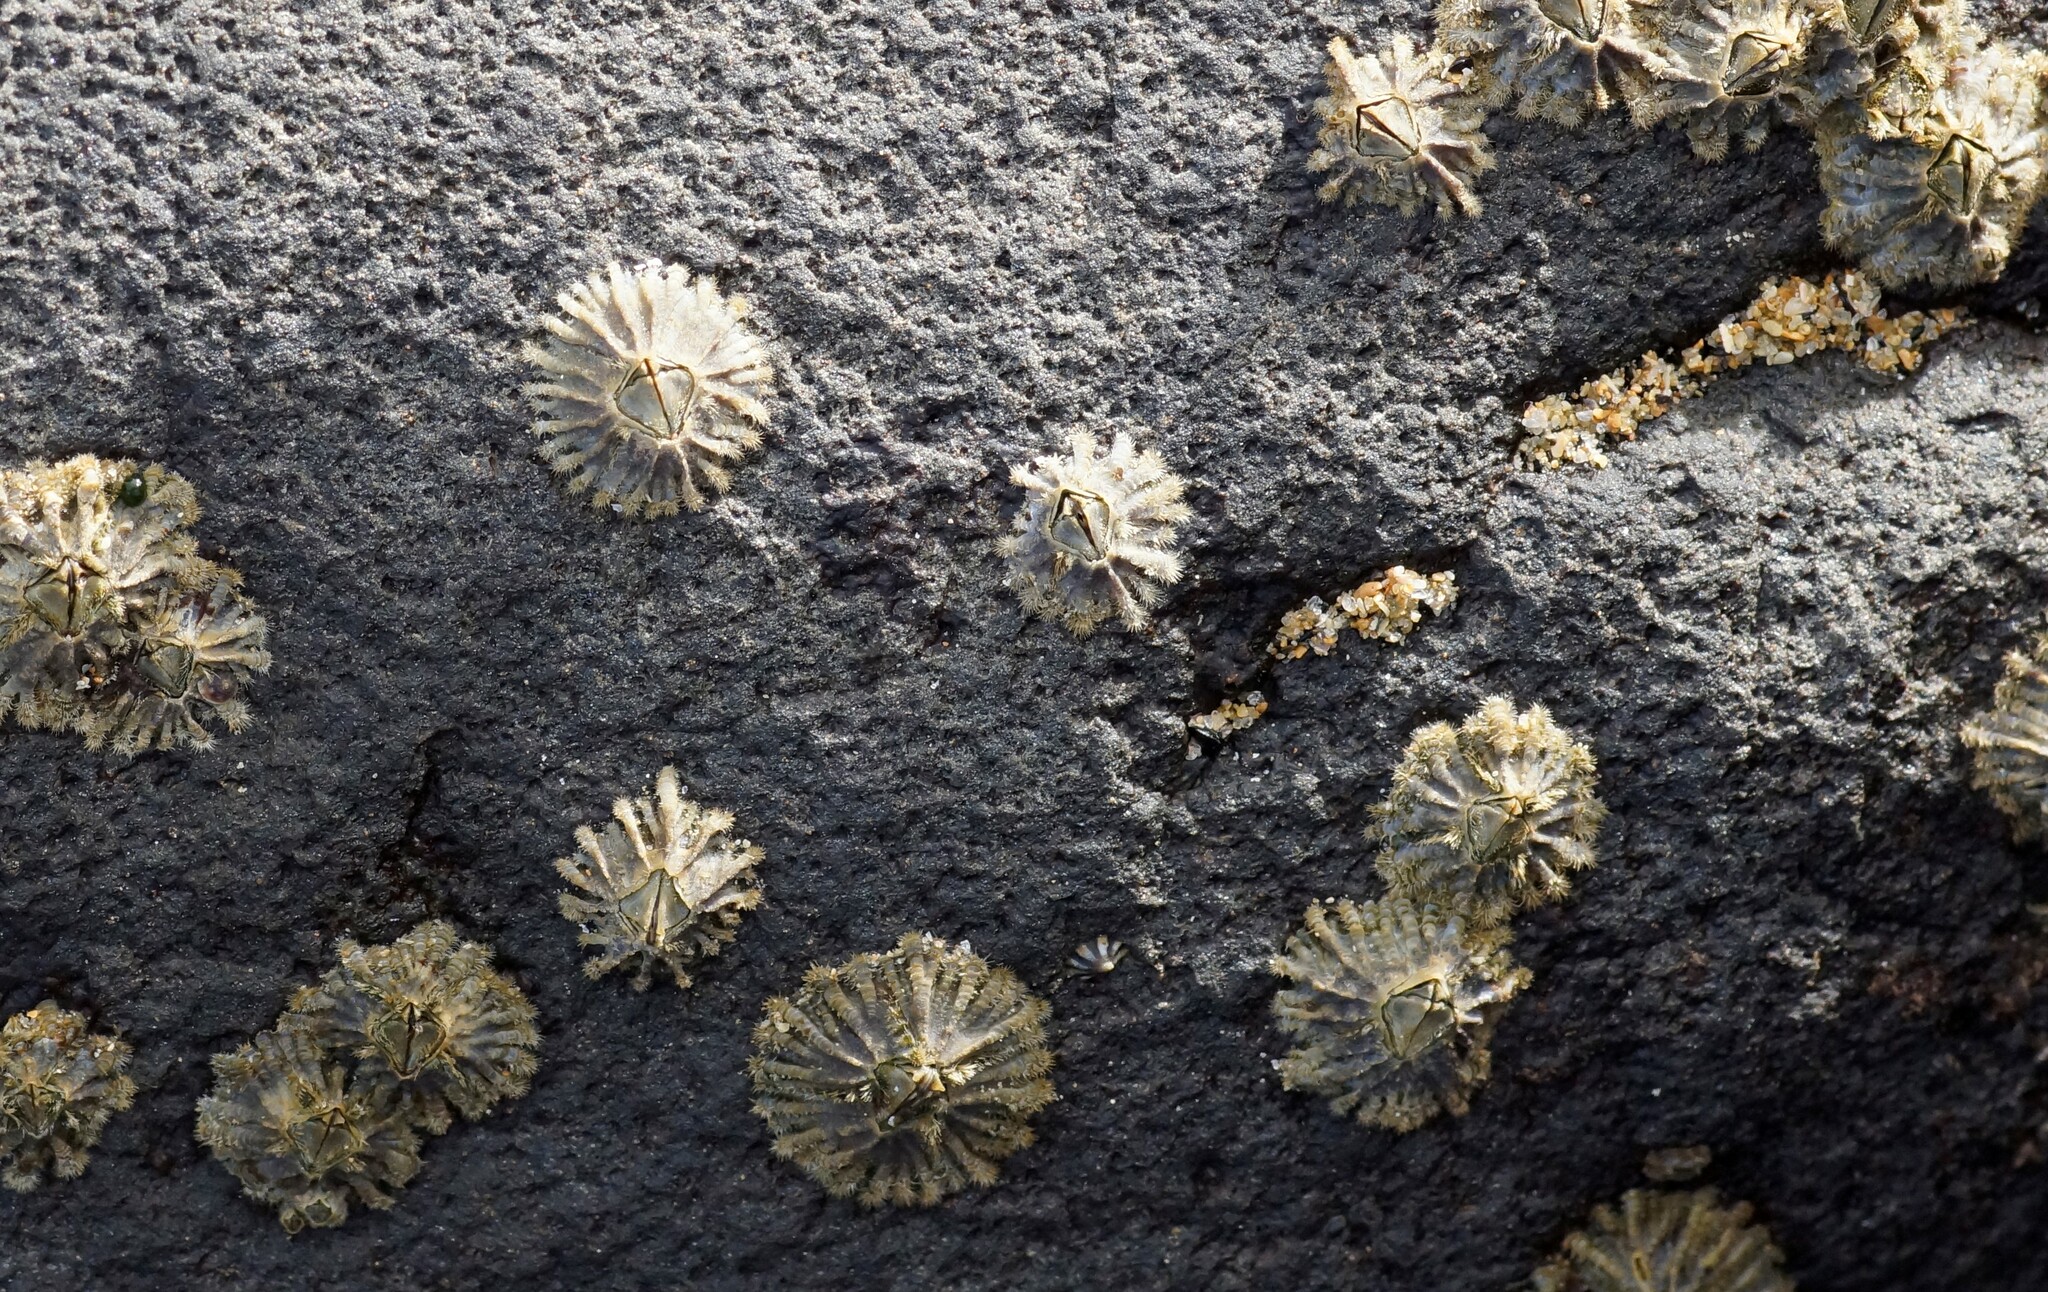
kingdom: Animalia
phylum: Arthropoda
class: Maxillopoda
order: Sessilia
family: Tetraclitidae
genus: Tetraclitella
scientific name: Tetraclitella purpurascens
